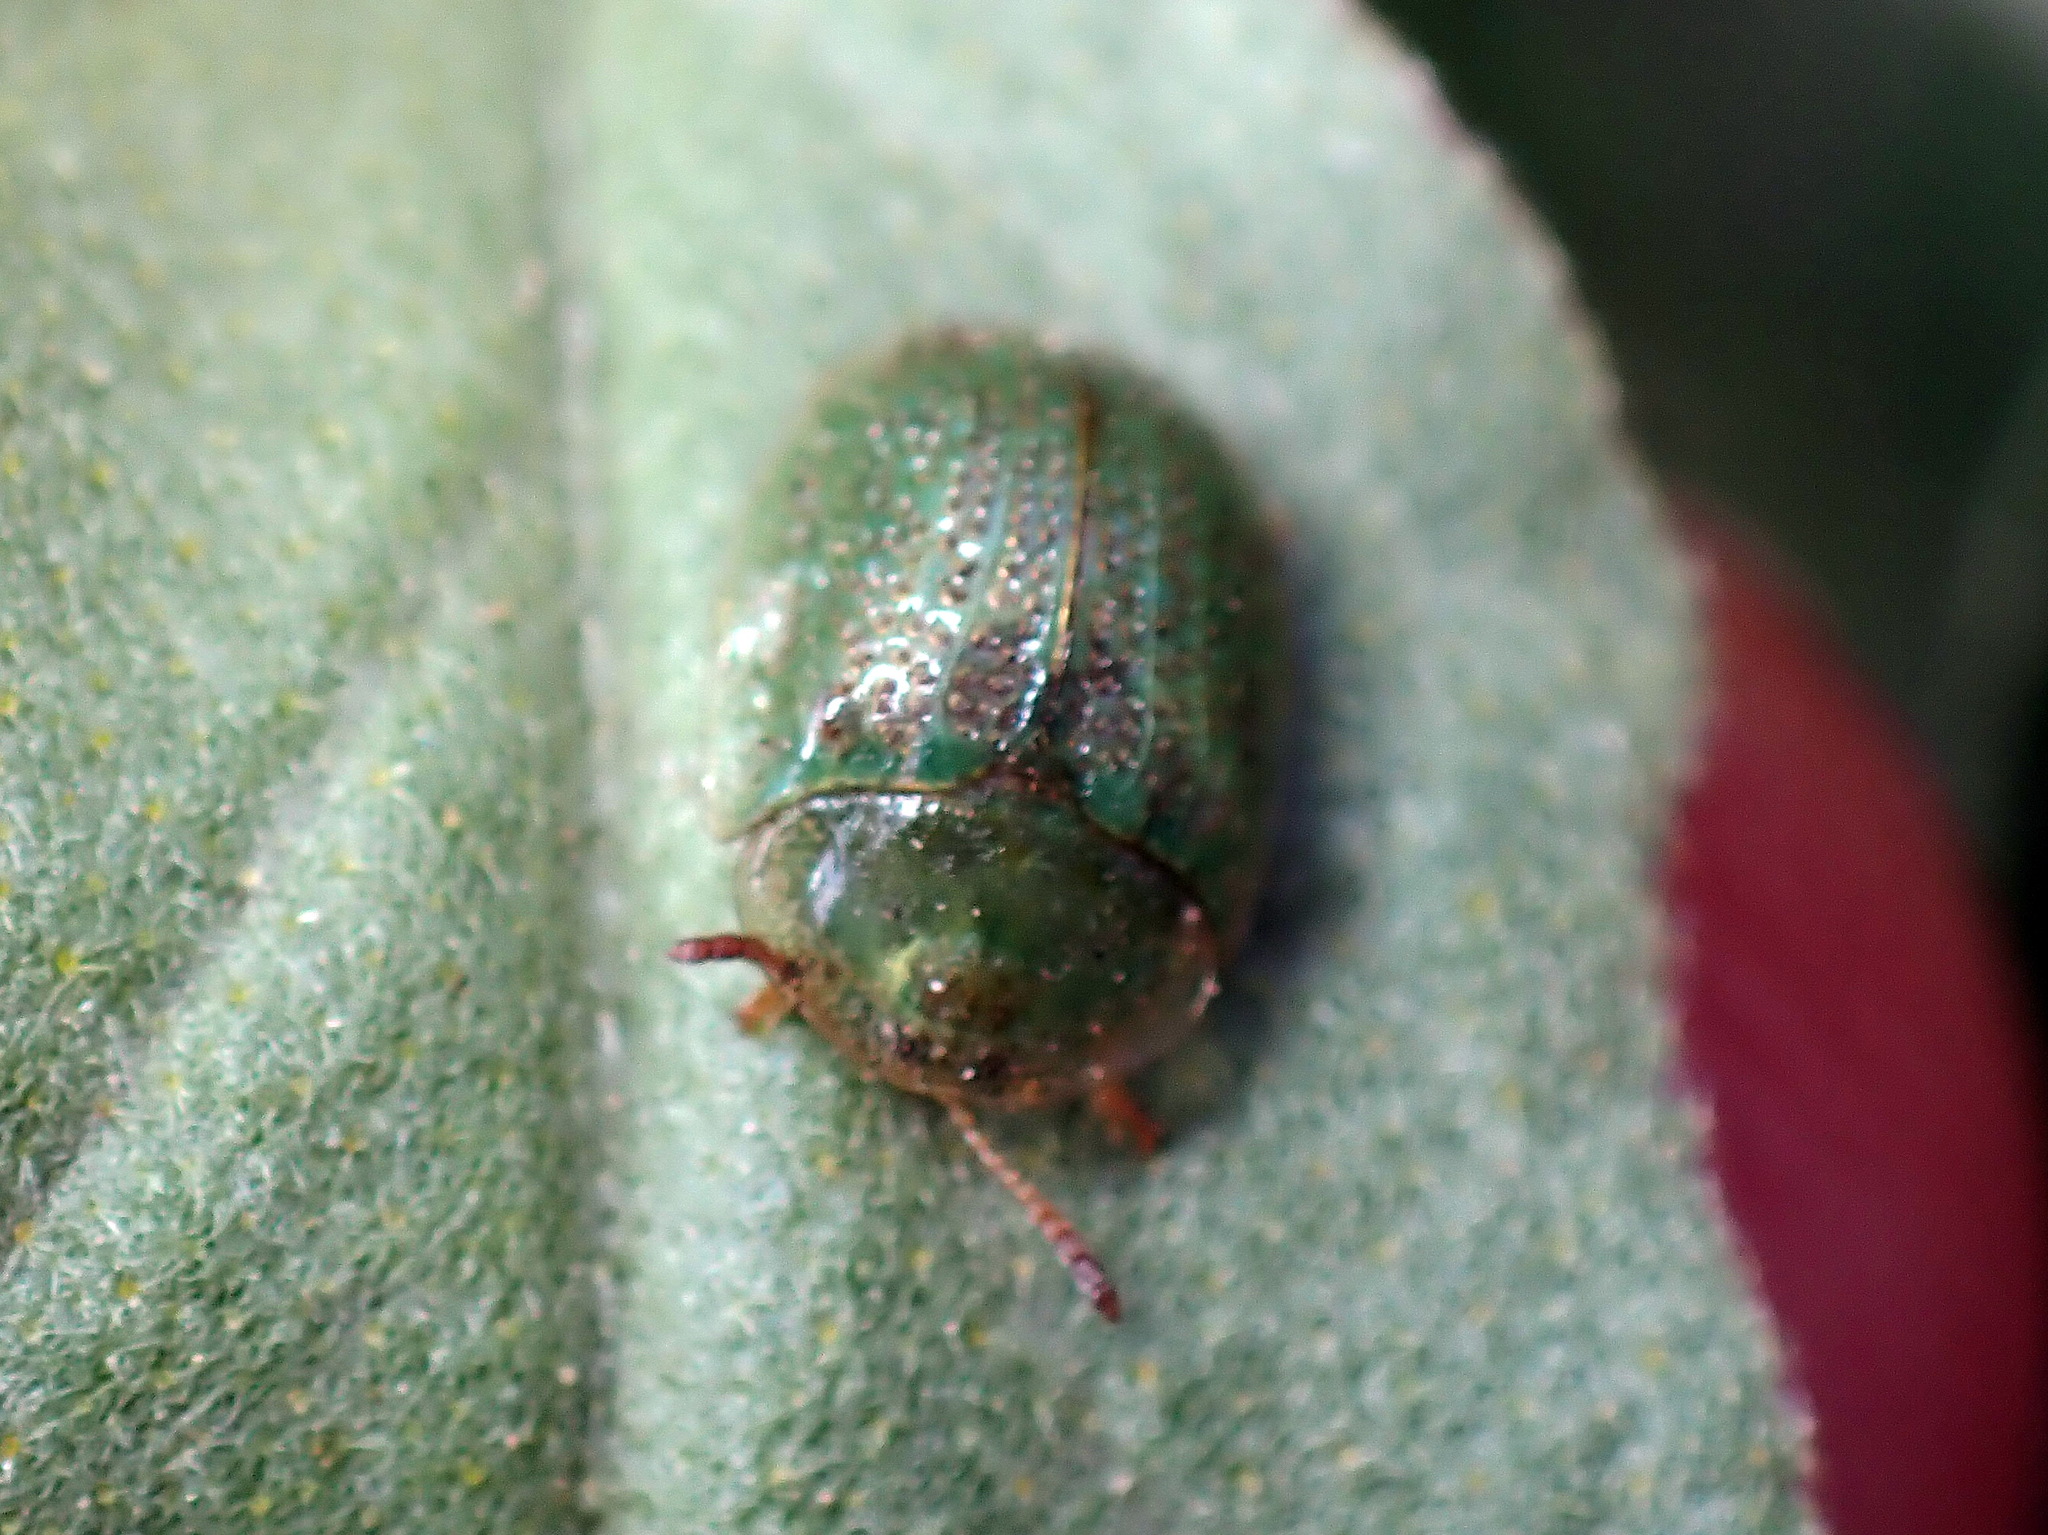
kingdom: Animalia
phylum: Arthropoda
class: Insecta
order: Coleoptera
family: Chrysomelidae
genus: Gratiana
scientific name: Gratiana pallidula
